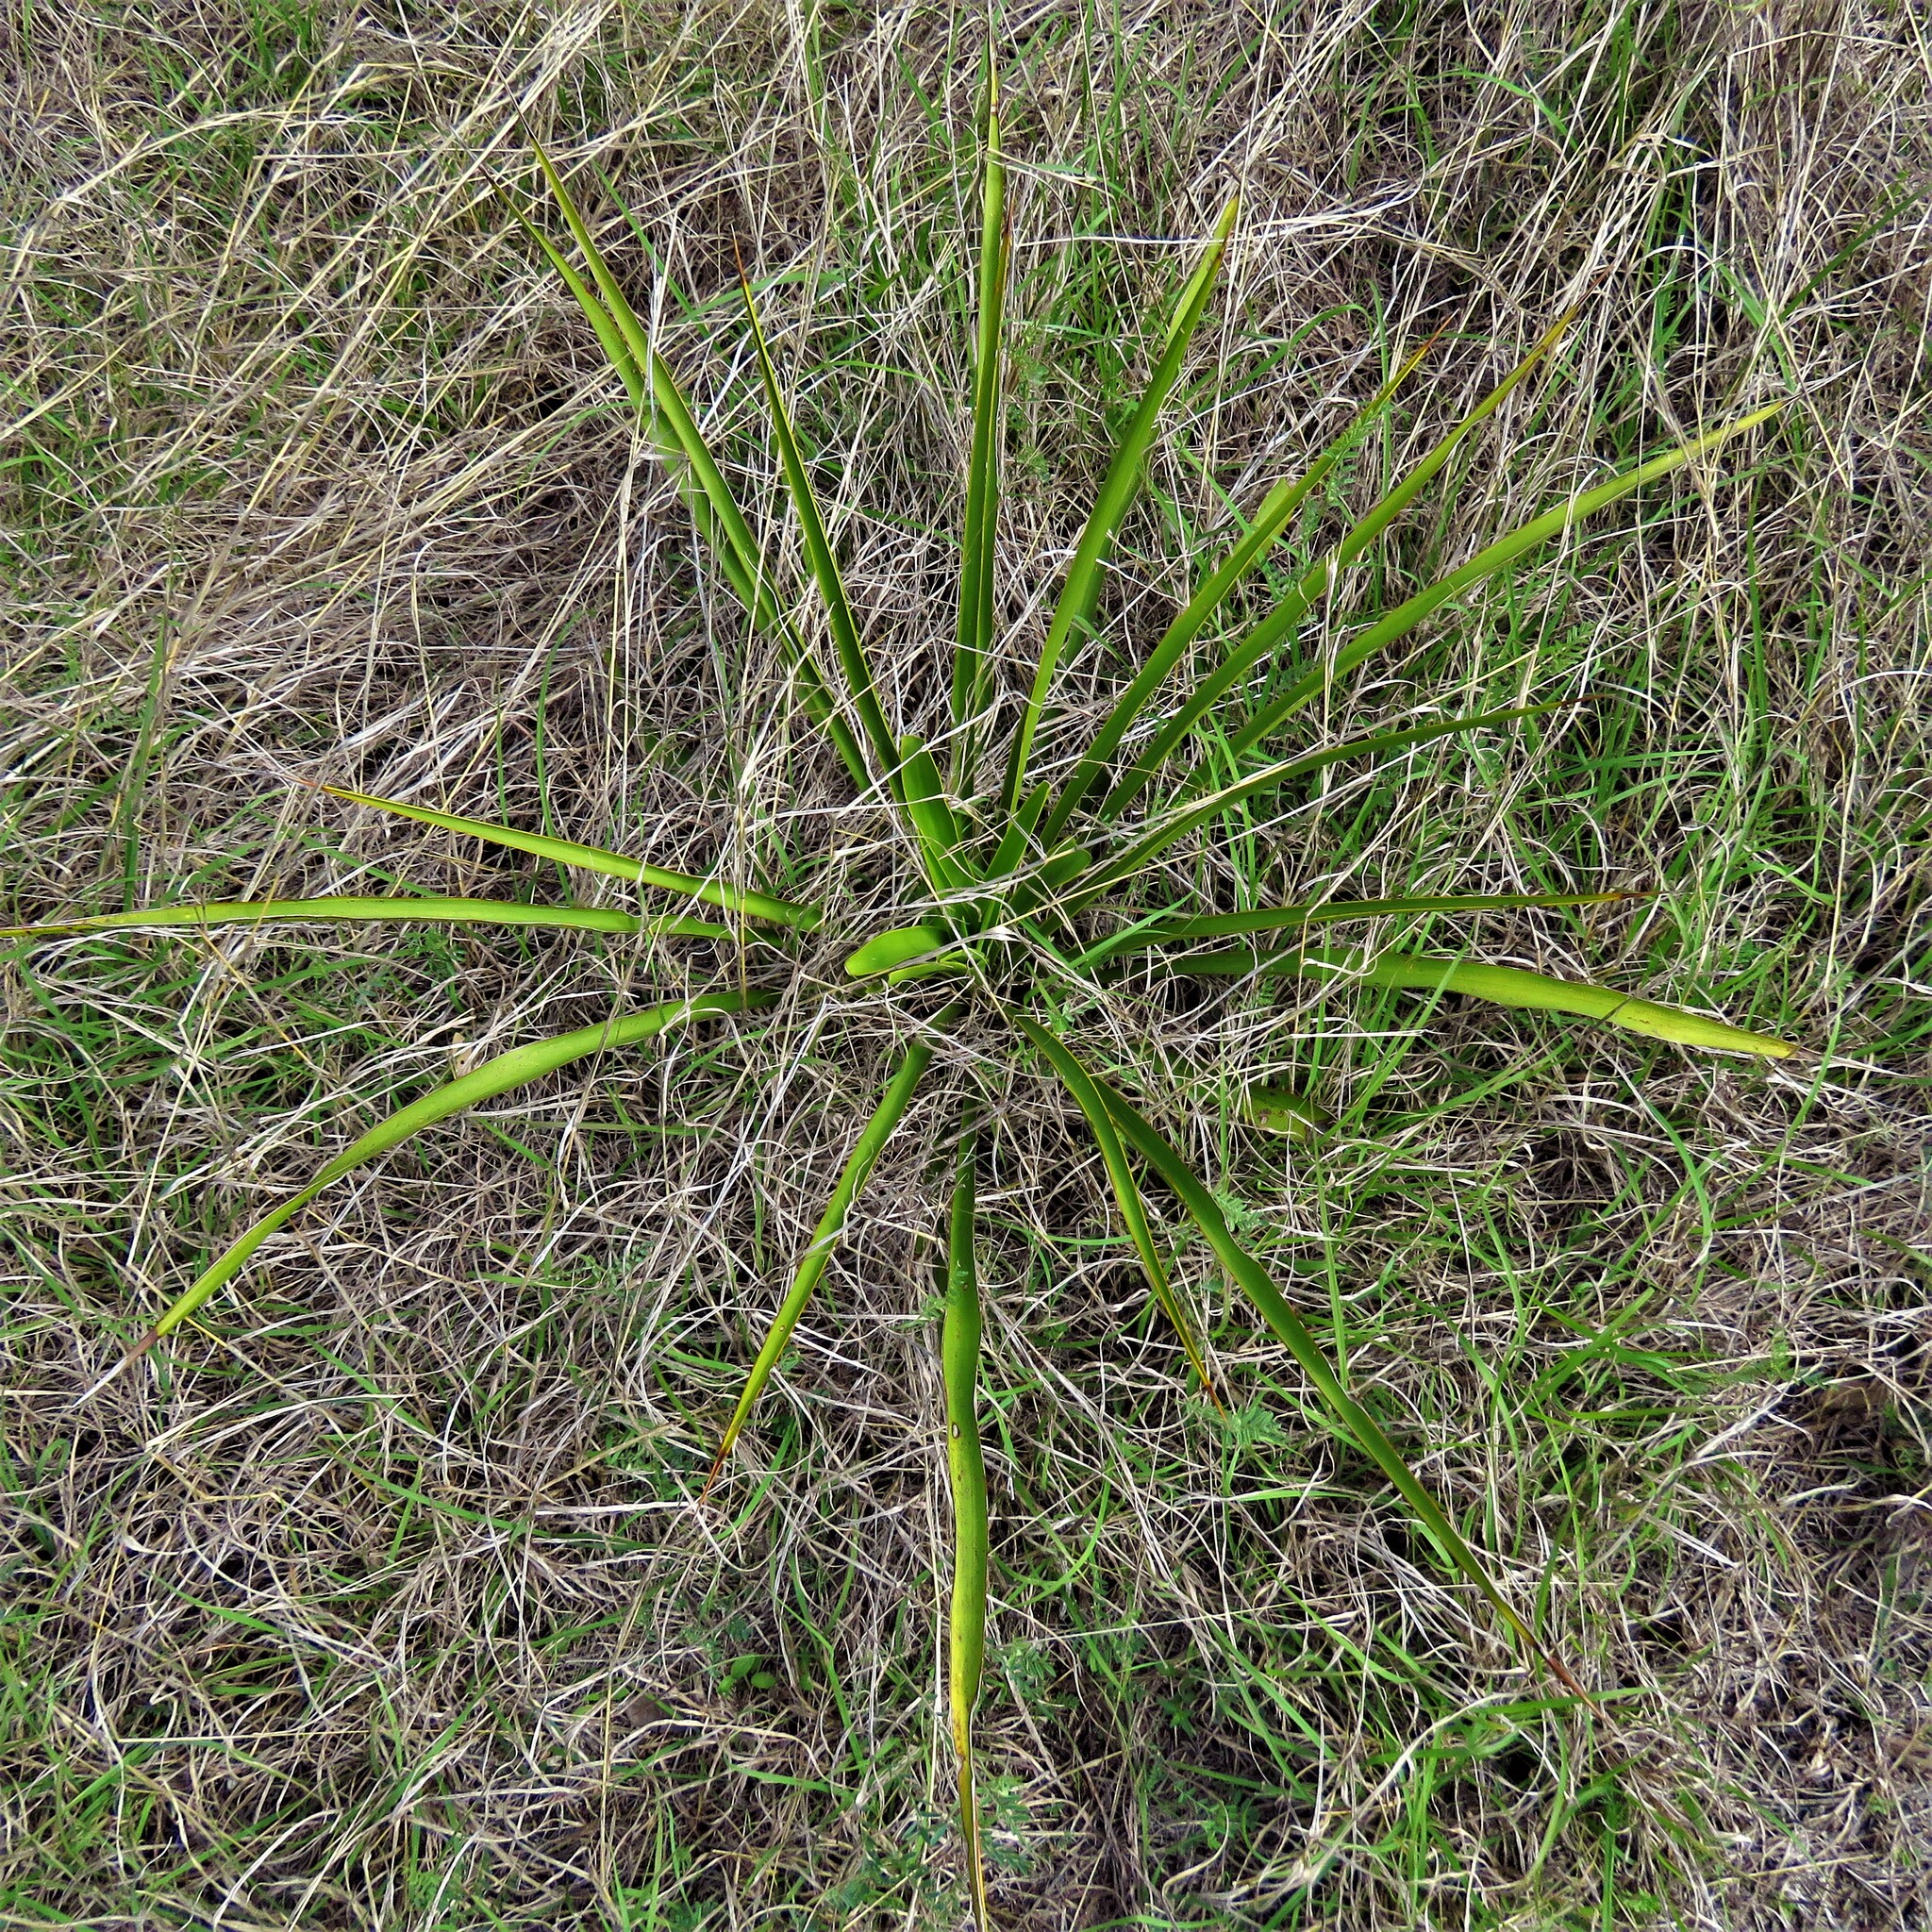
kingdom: Plantae
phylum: Tracheophyta
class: Liliopsida
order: Asparagales
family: Asparagaceae
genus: Yucca
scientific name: Yucca rupicola
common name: Twisted-leaf spanish-dagger
